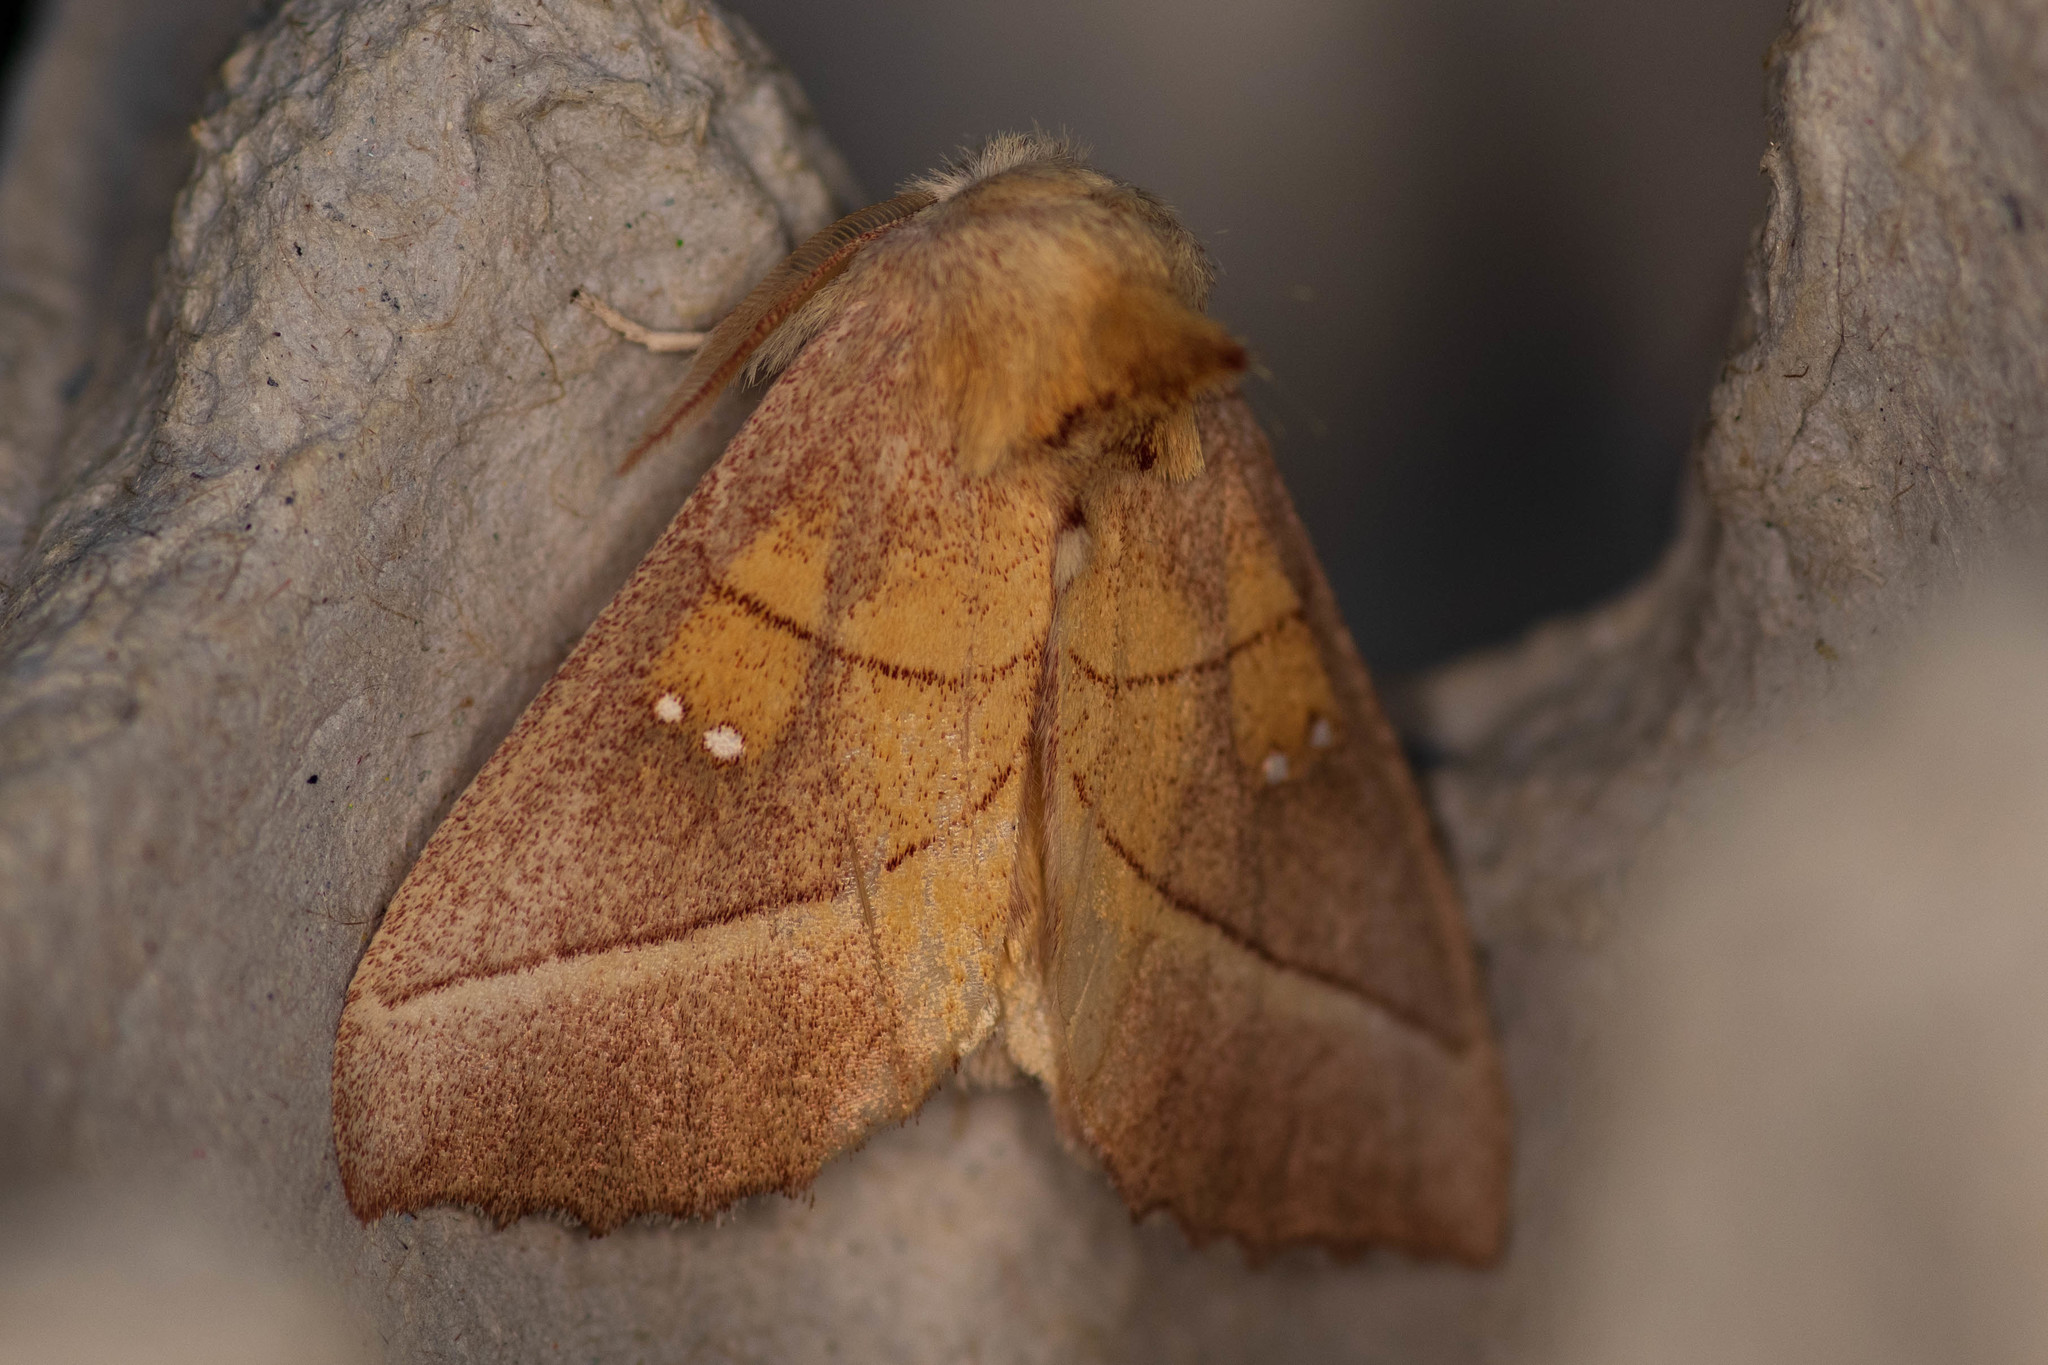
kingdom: Animalia
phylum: Arthropoda
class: Insecta
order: Lepidoptera
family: Notodontidae
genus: Nadata
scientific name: Nadata gibbosa
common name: White-dotted prominent
